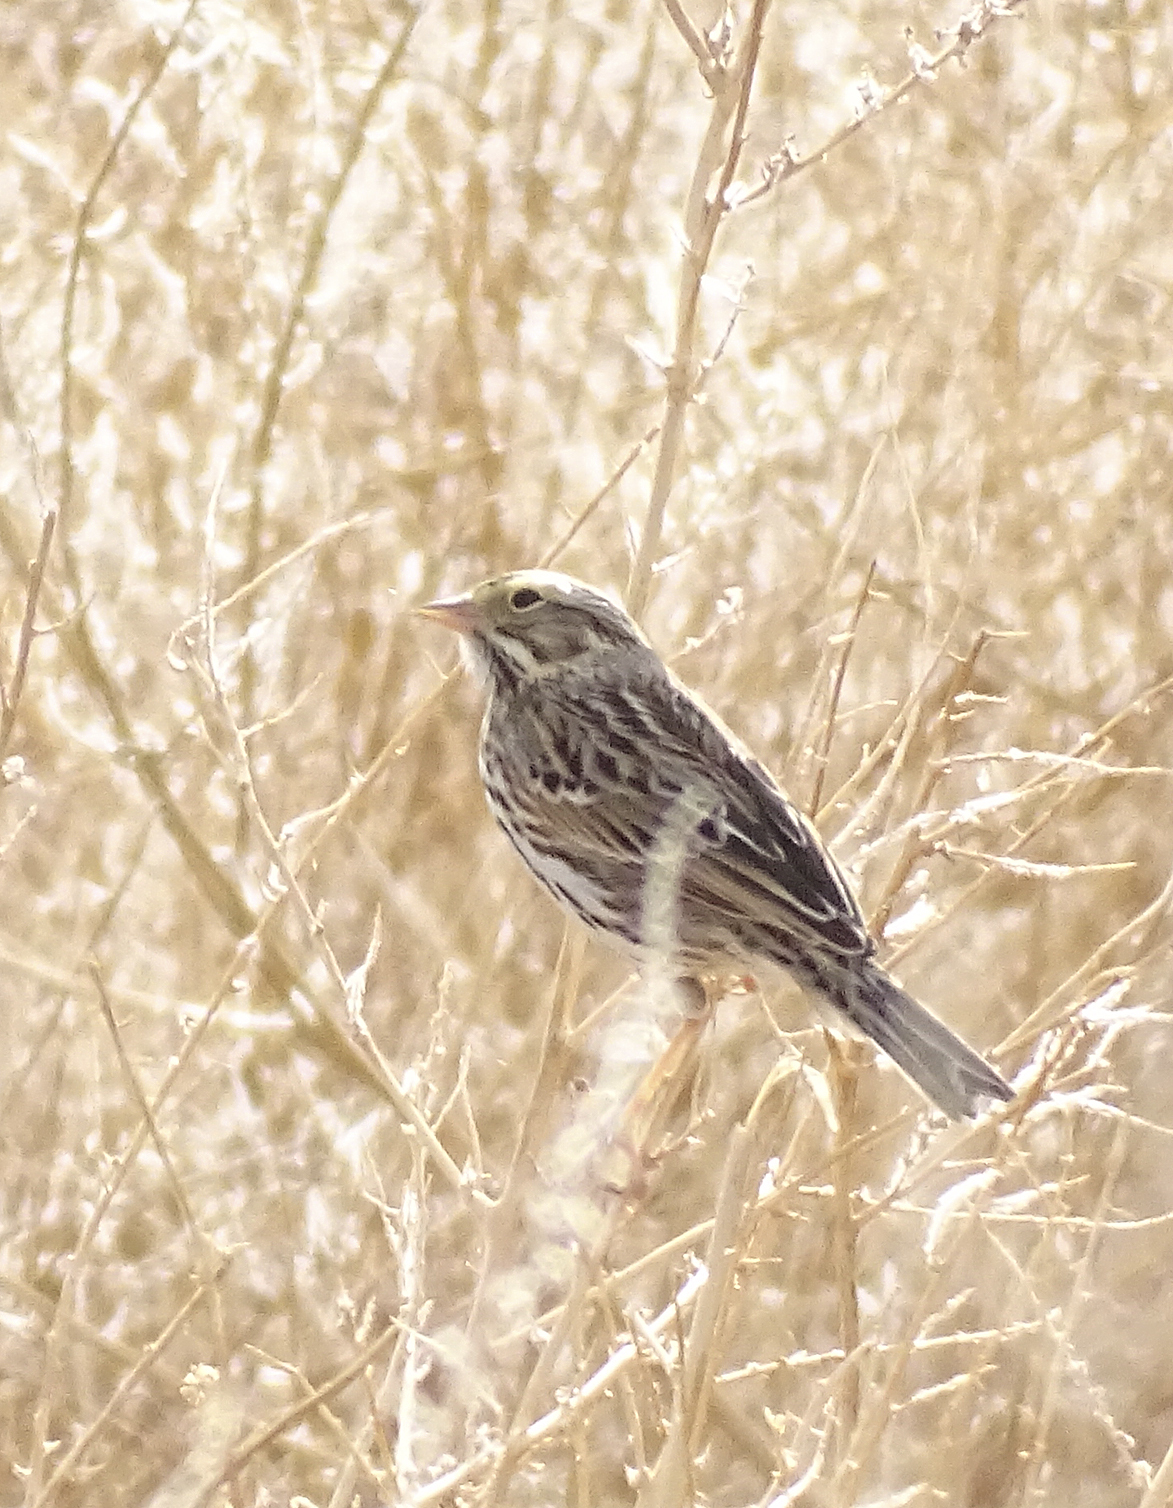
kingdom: Animalia
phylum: Chordata
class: Aves
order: Passeriformes
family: Passerellidae
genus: Passerculus
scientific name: Passerculus sandwichensis
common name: Savannah sparrow
